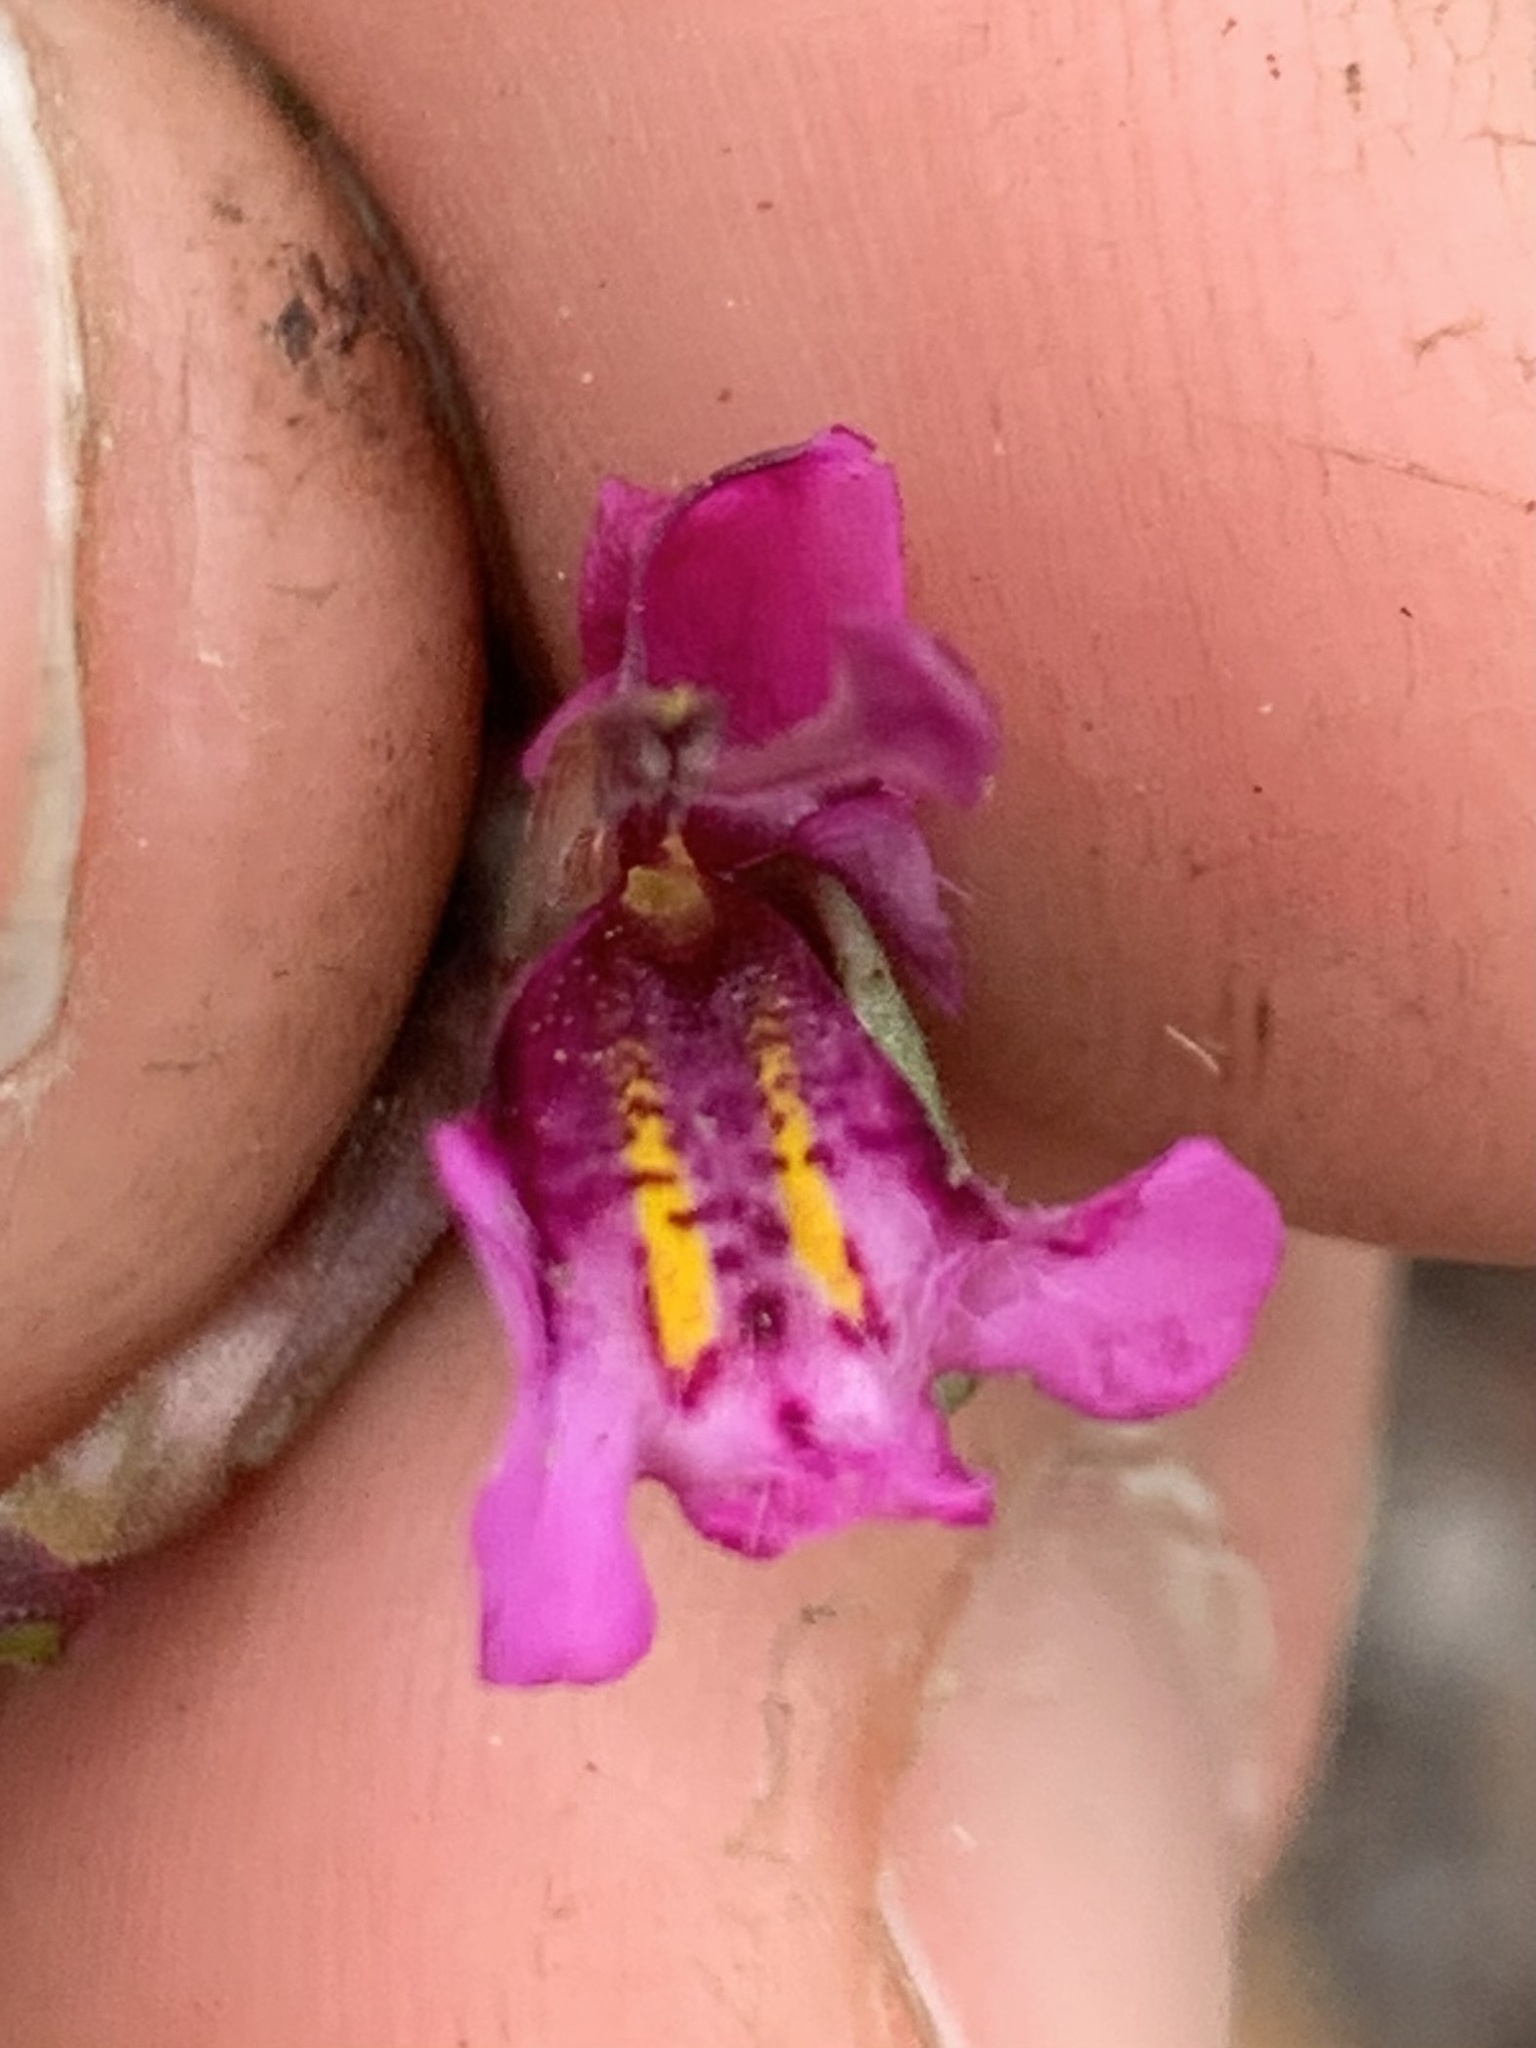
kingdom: Plantae
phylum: Tracheophyta
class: Magnoliopsida
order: Lamiales
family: Phrymaceae
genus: Diplacus
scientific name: Diplacus nanus
